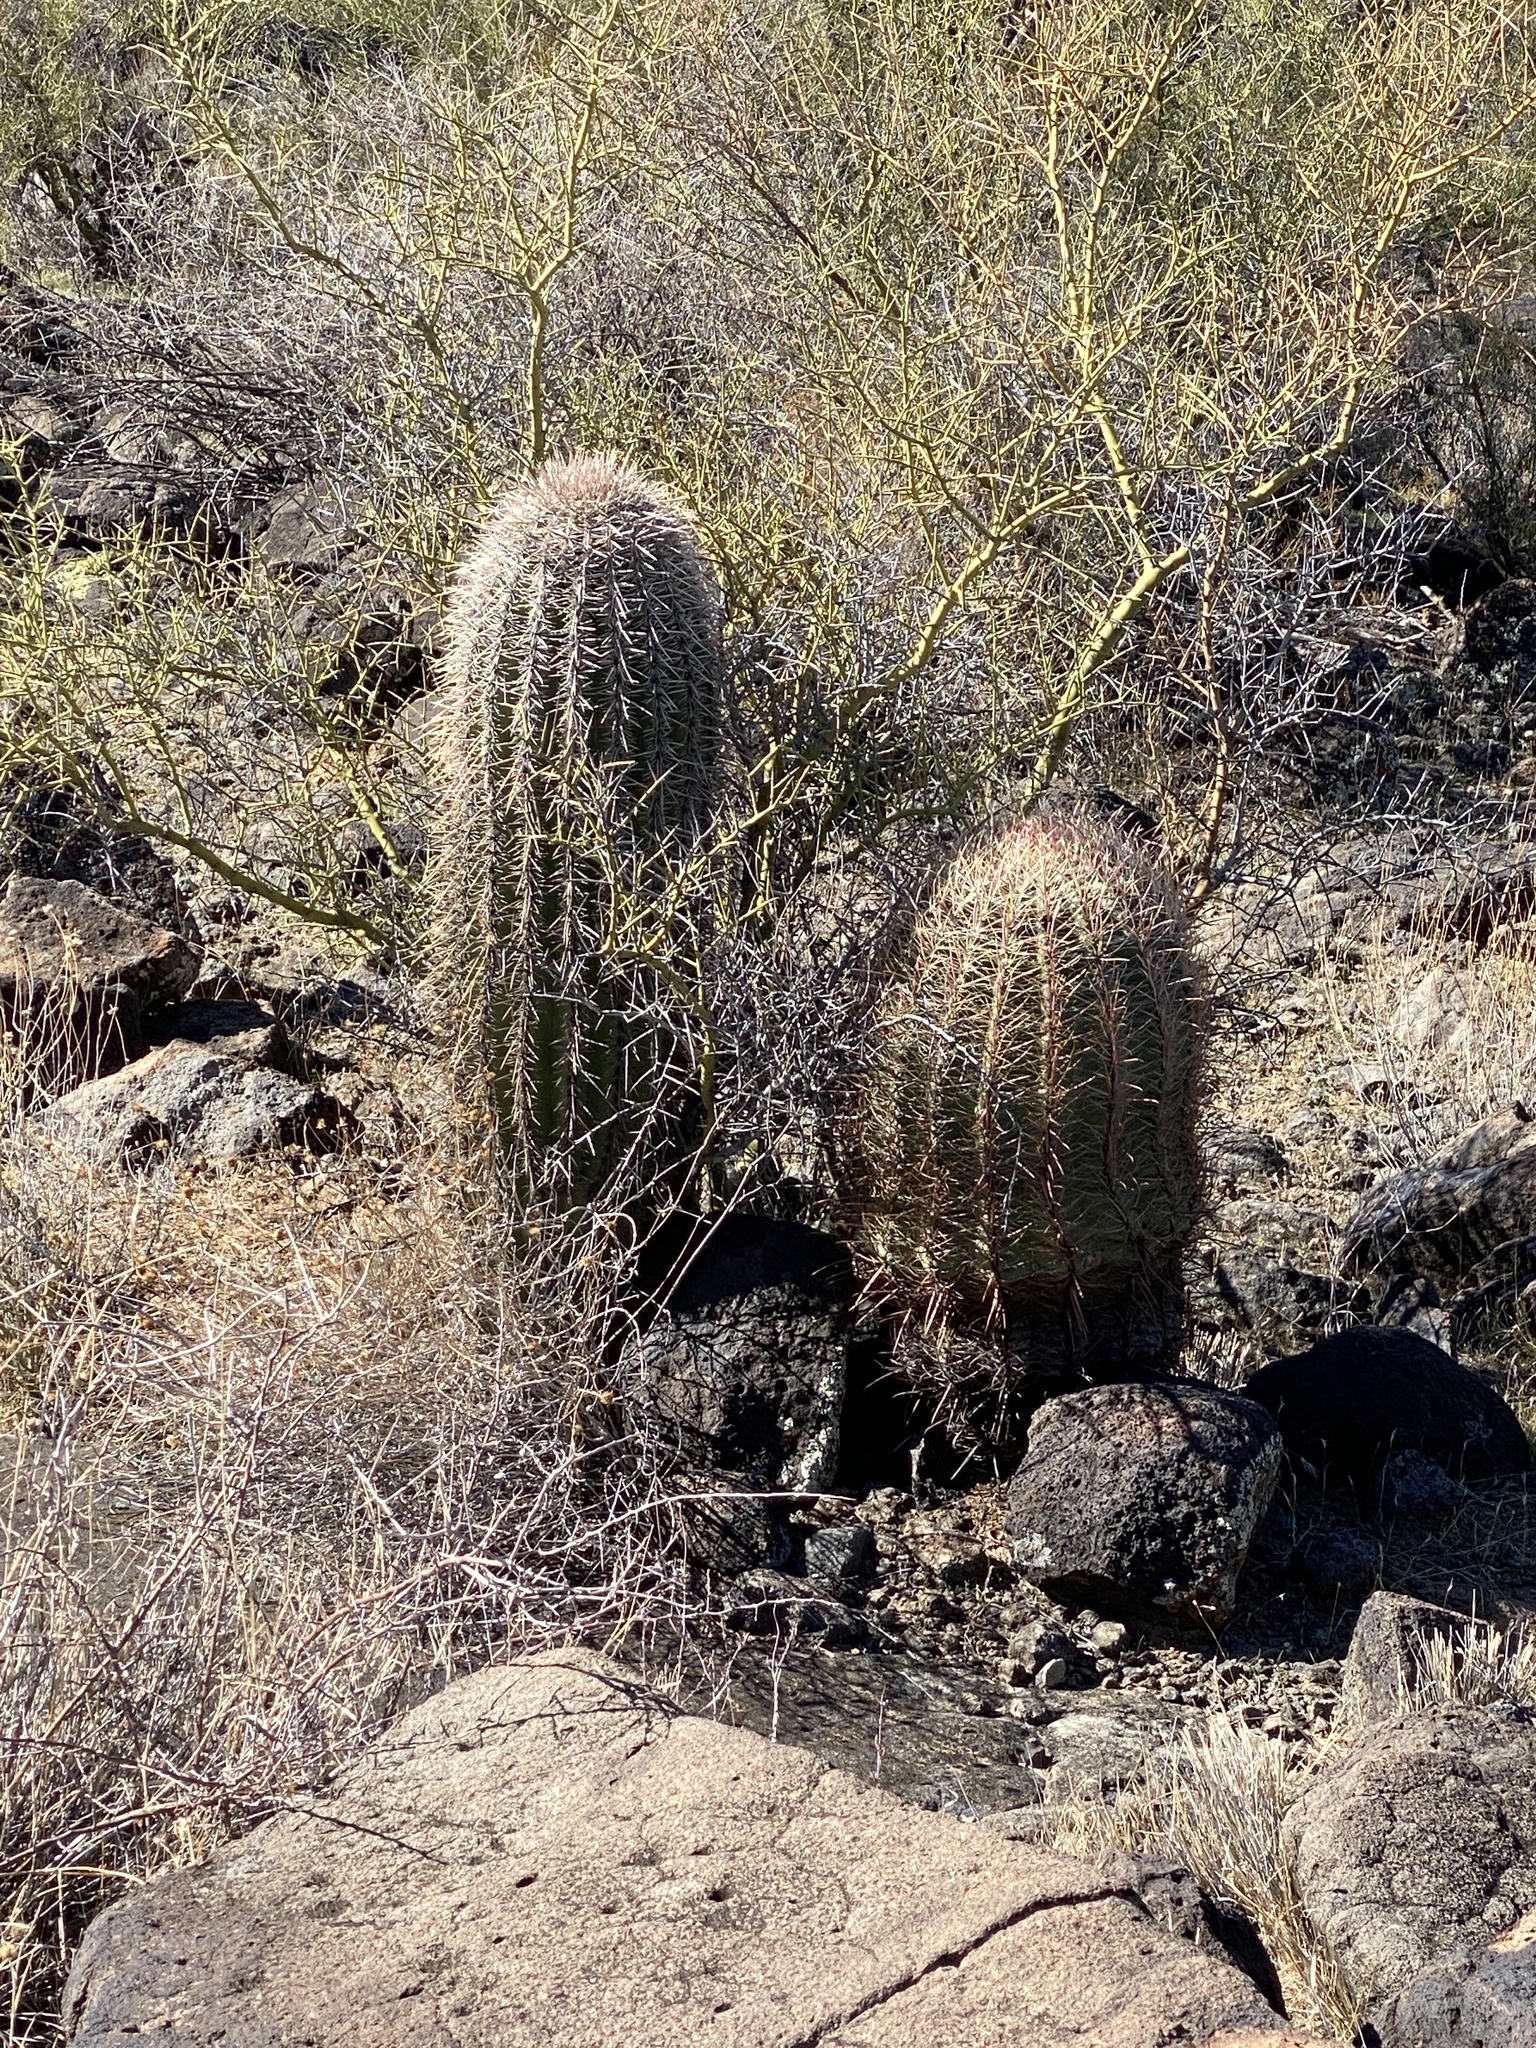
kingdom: Plantae
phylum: Tracheophyta
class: Magnoliopsida
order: Caryophyllales
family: Cactaceae
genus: Ferocactus
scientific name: Ferocactus cylindraceus
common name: California barrel cactus
